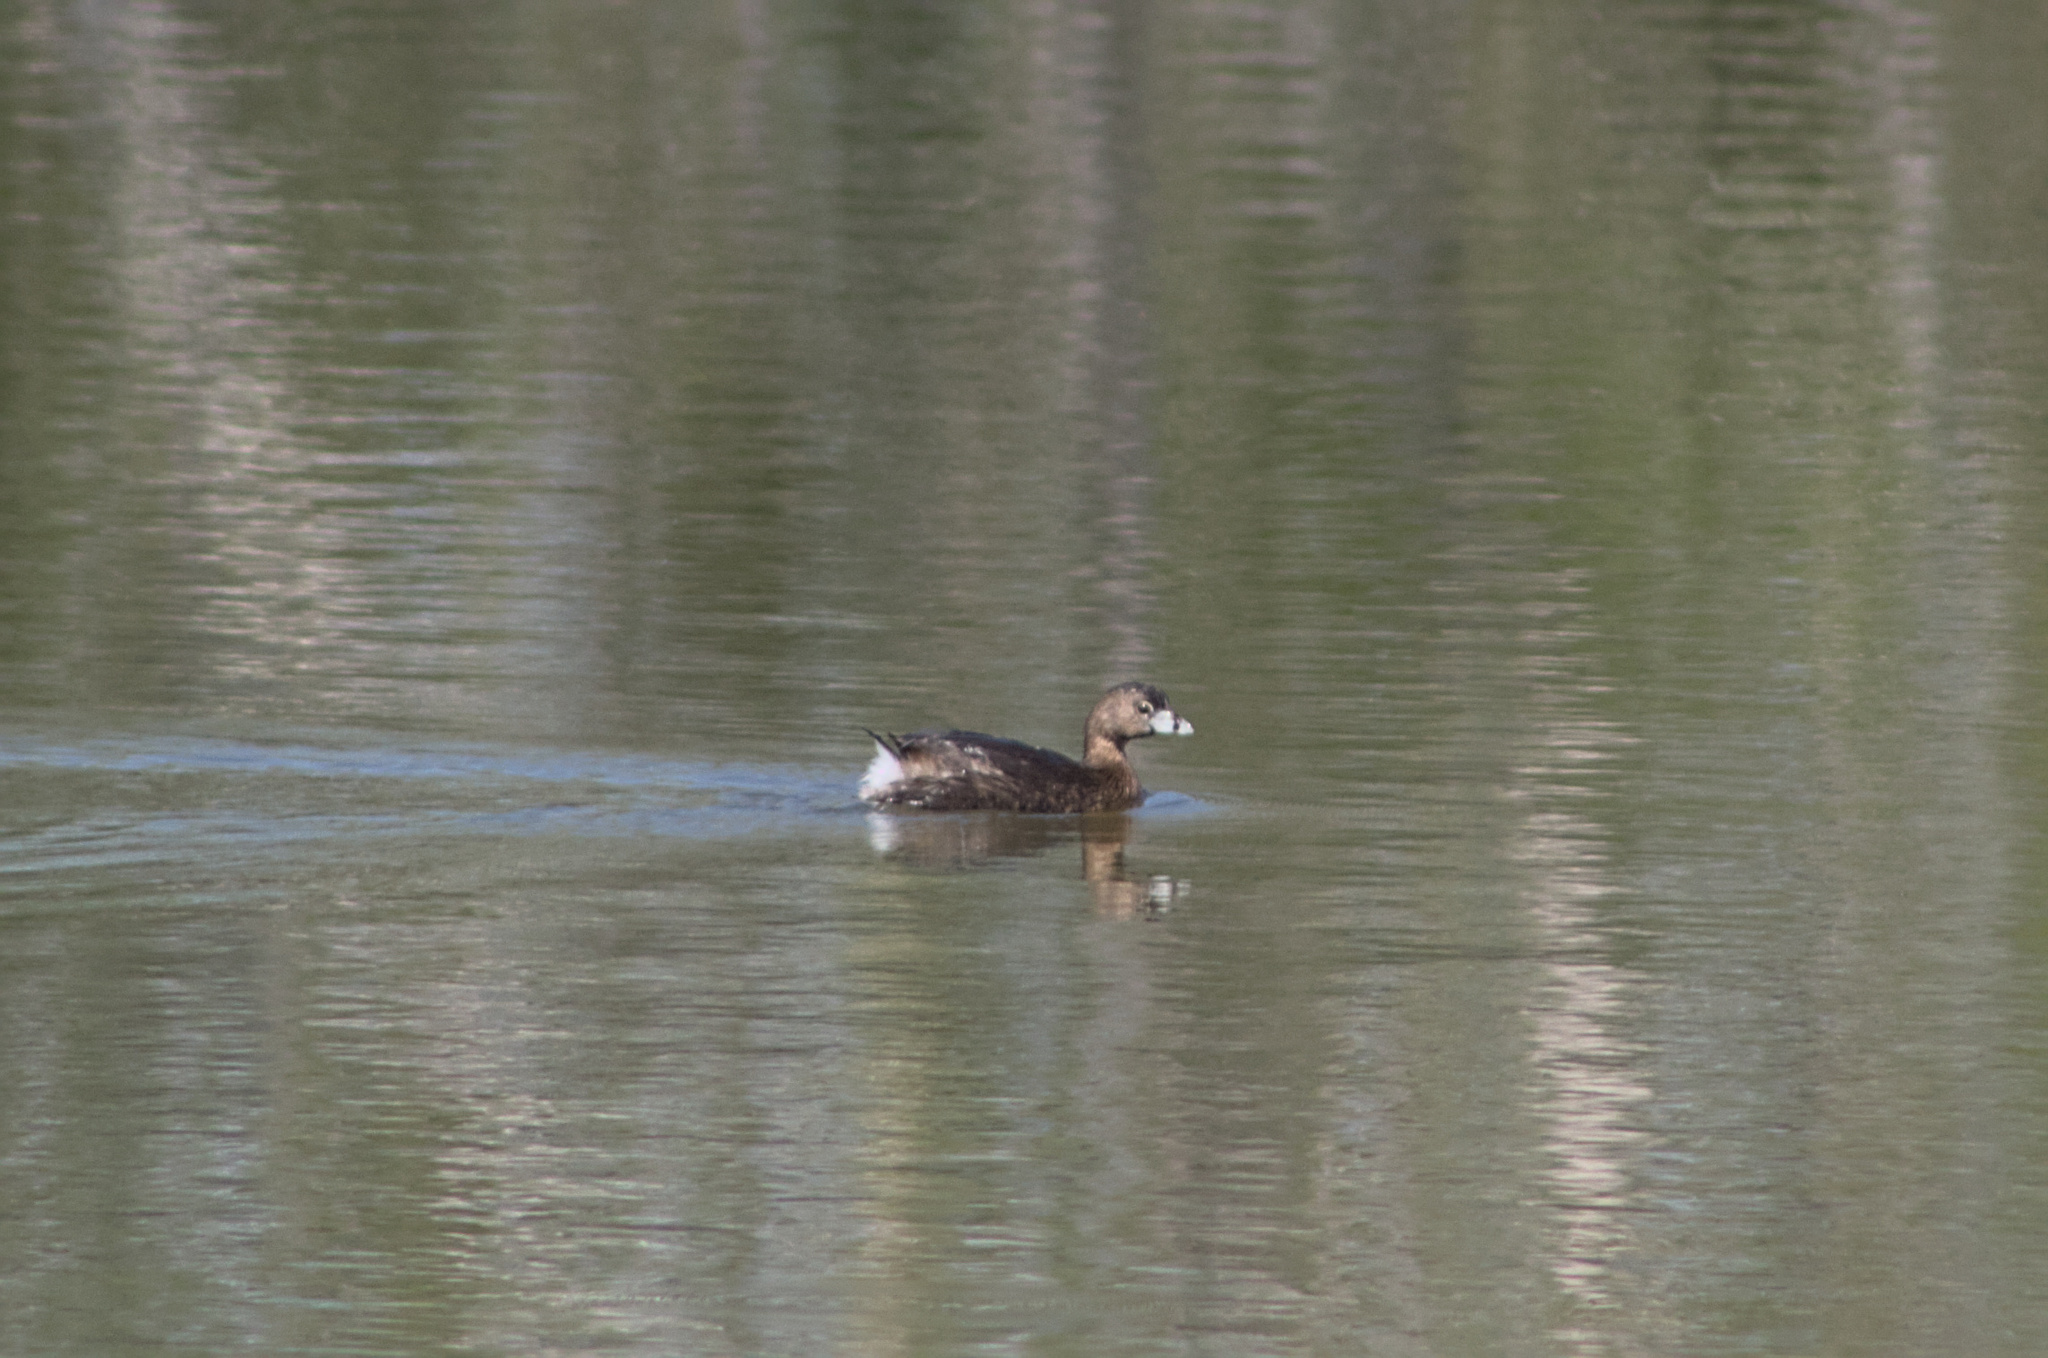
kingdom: Animalia
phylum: Chordata
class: Aves
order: Podicipediformes
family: Podicipedidae
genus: Podilymbus
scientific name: Podilymbus podiceps
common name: Pied-billed grebe
